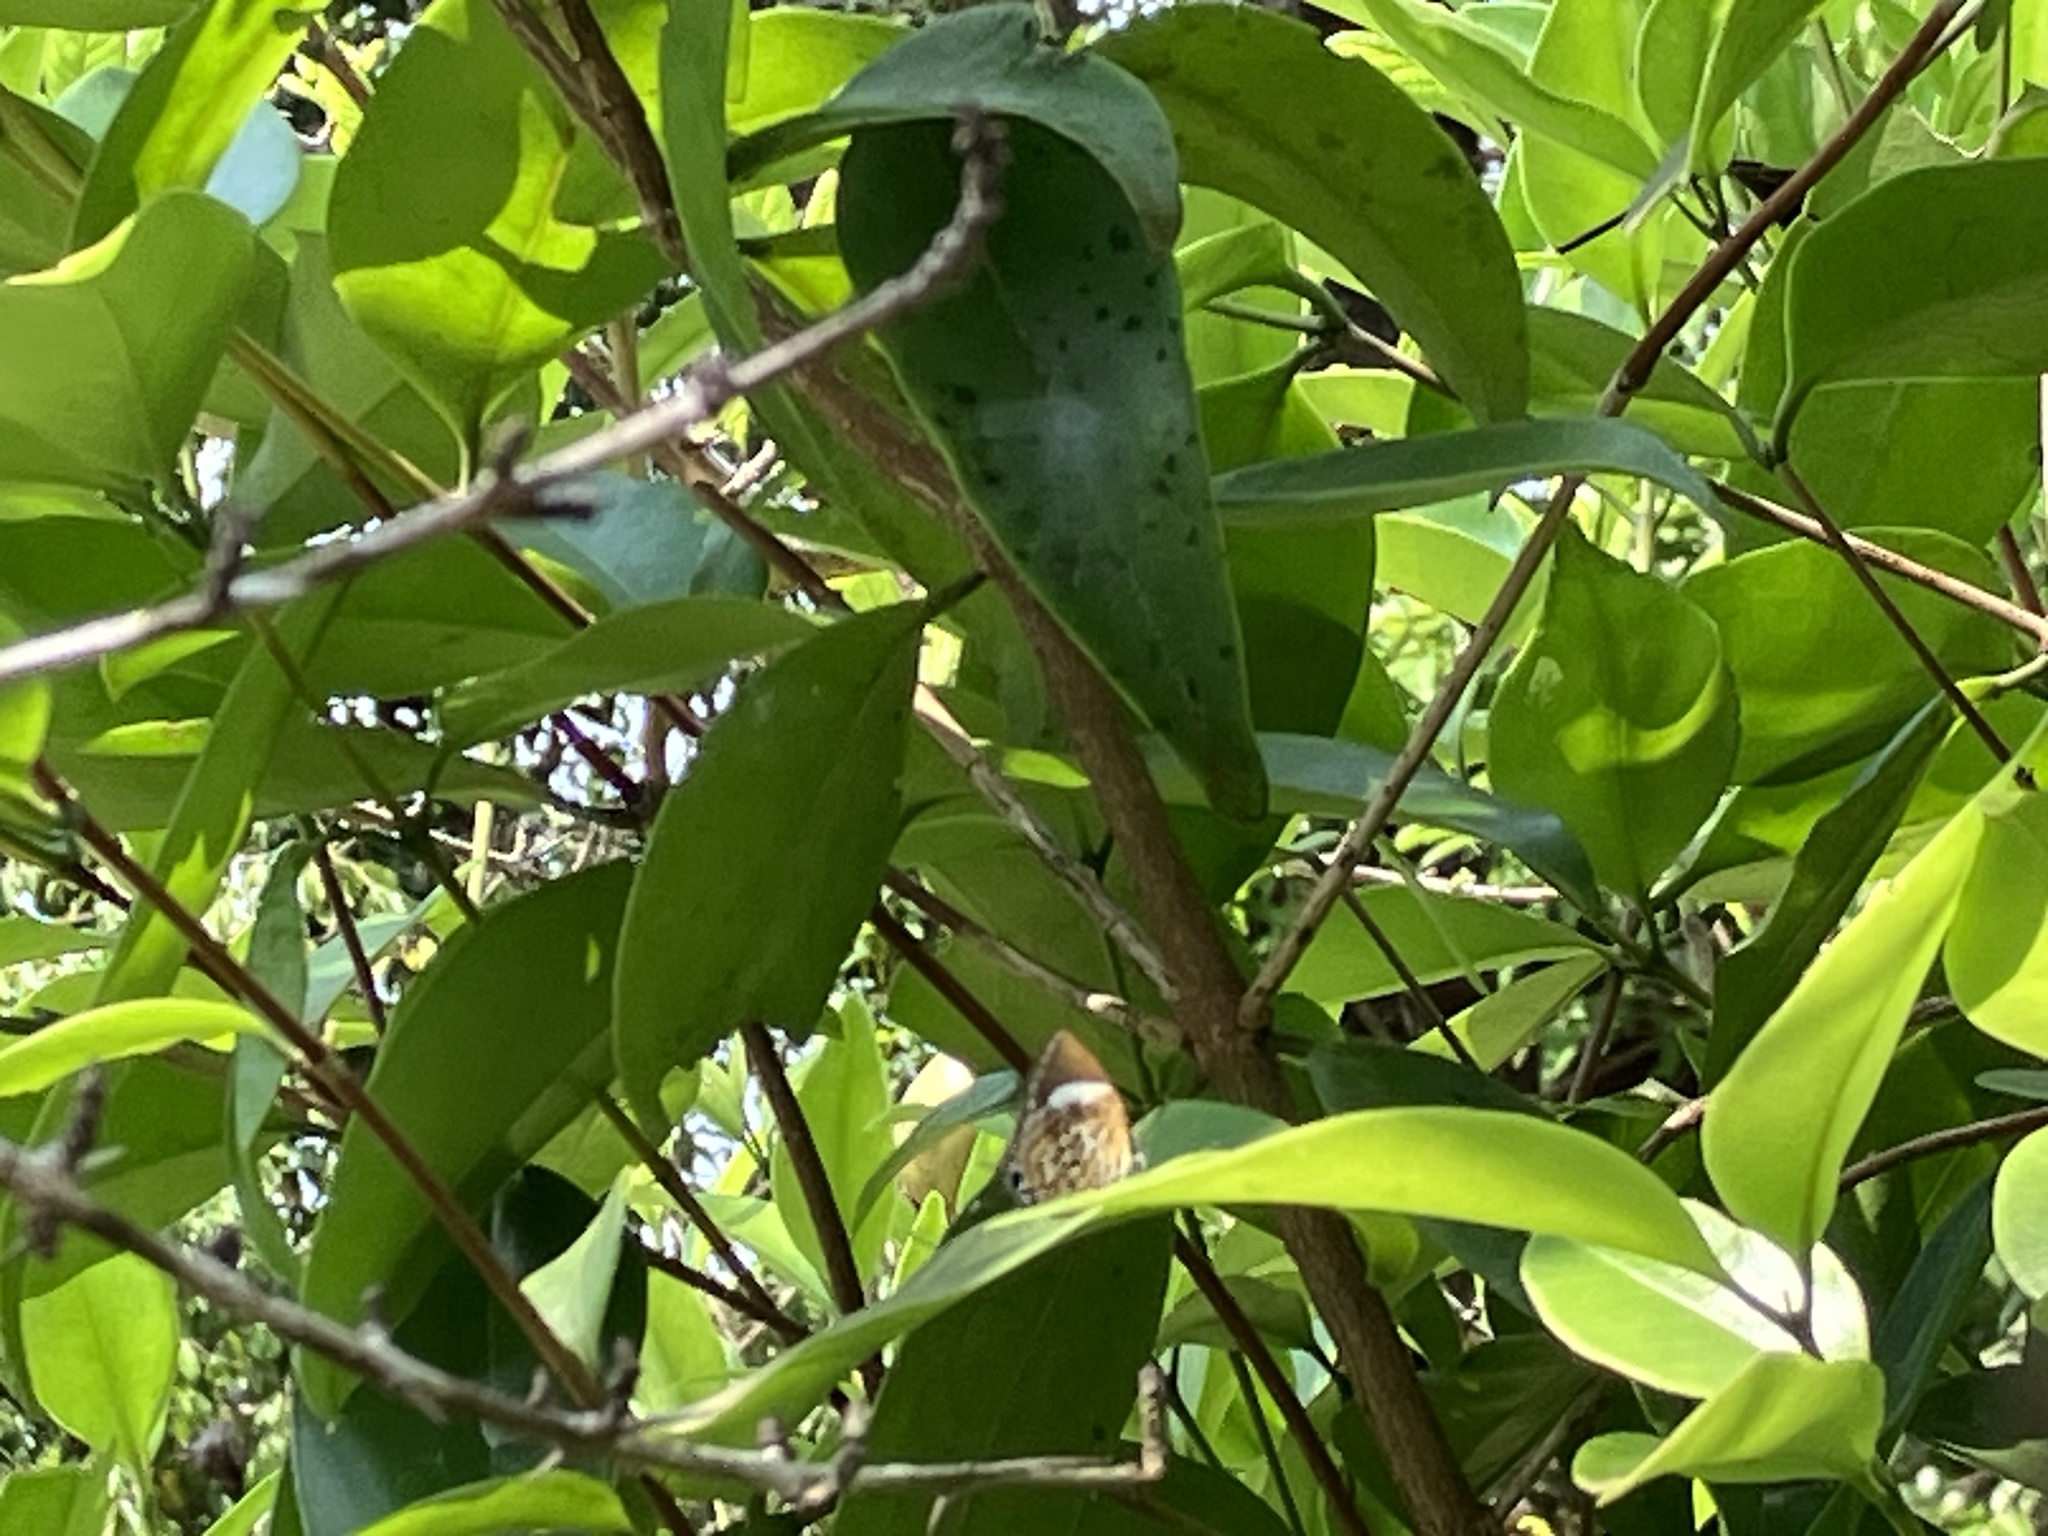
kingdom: Animalia
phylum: Arthropoda
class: Insecta
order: Lepidoptera
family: Lycaenidae
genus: Rathinda
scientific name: Rathinda amor
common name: Monkey puzzle
